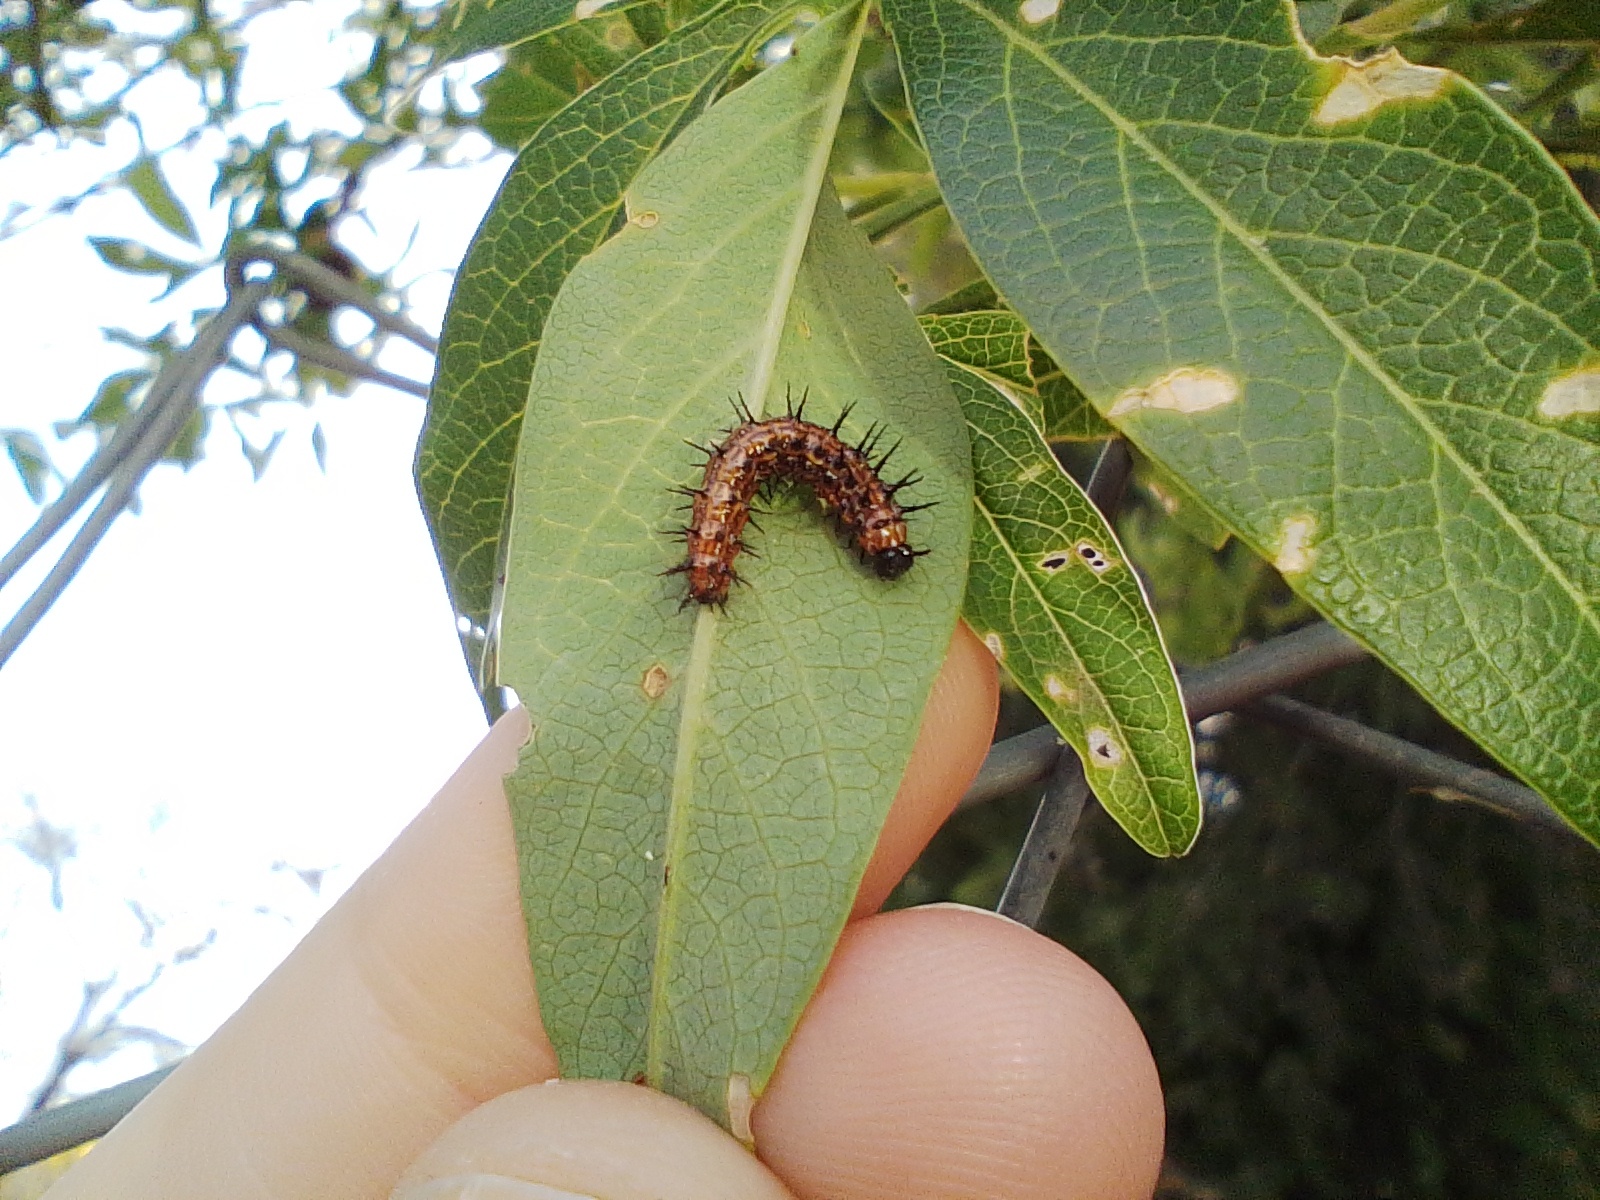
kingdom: Animalia
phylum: Arthropoda
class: Insecta
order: Lepidoptera
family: Nymphalidae
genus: Dione
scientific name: Dione vanillae
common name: Gulf fritillary
